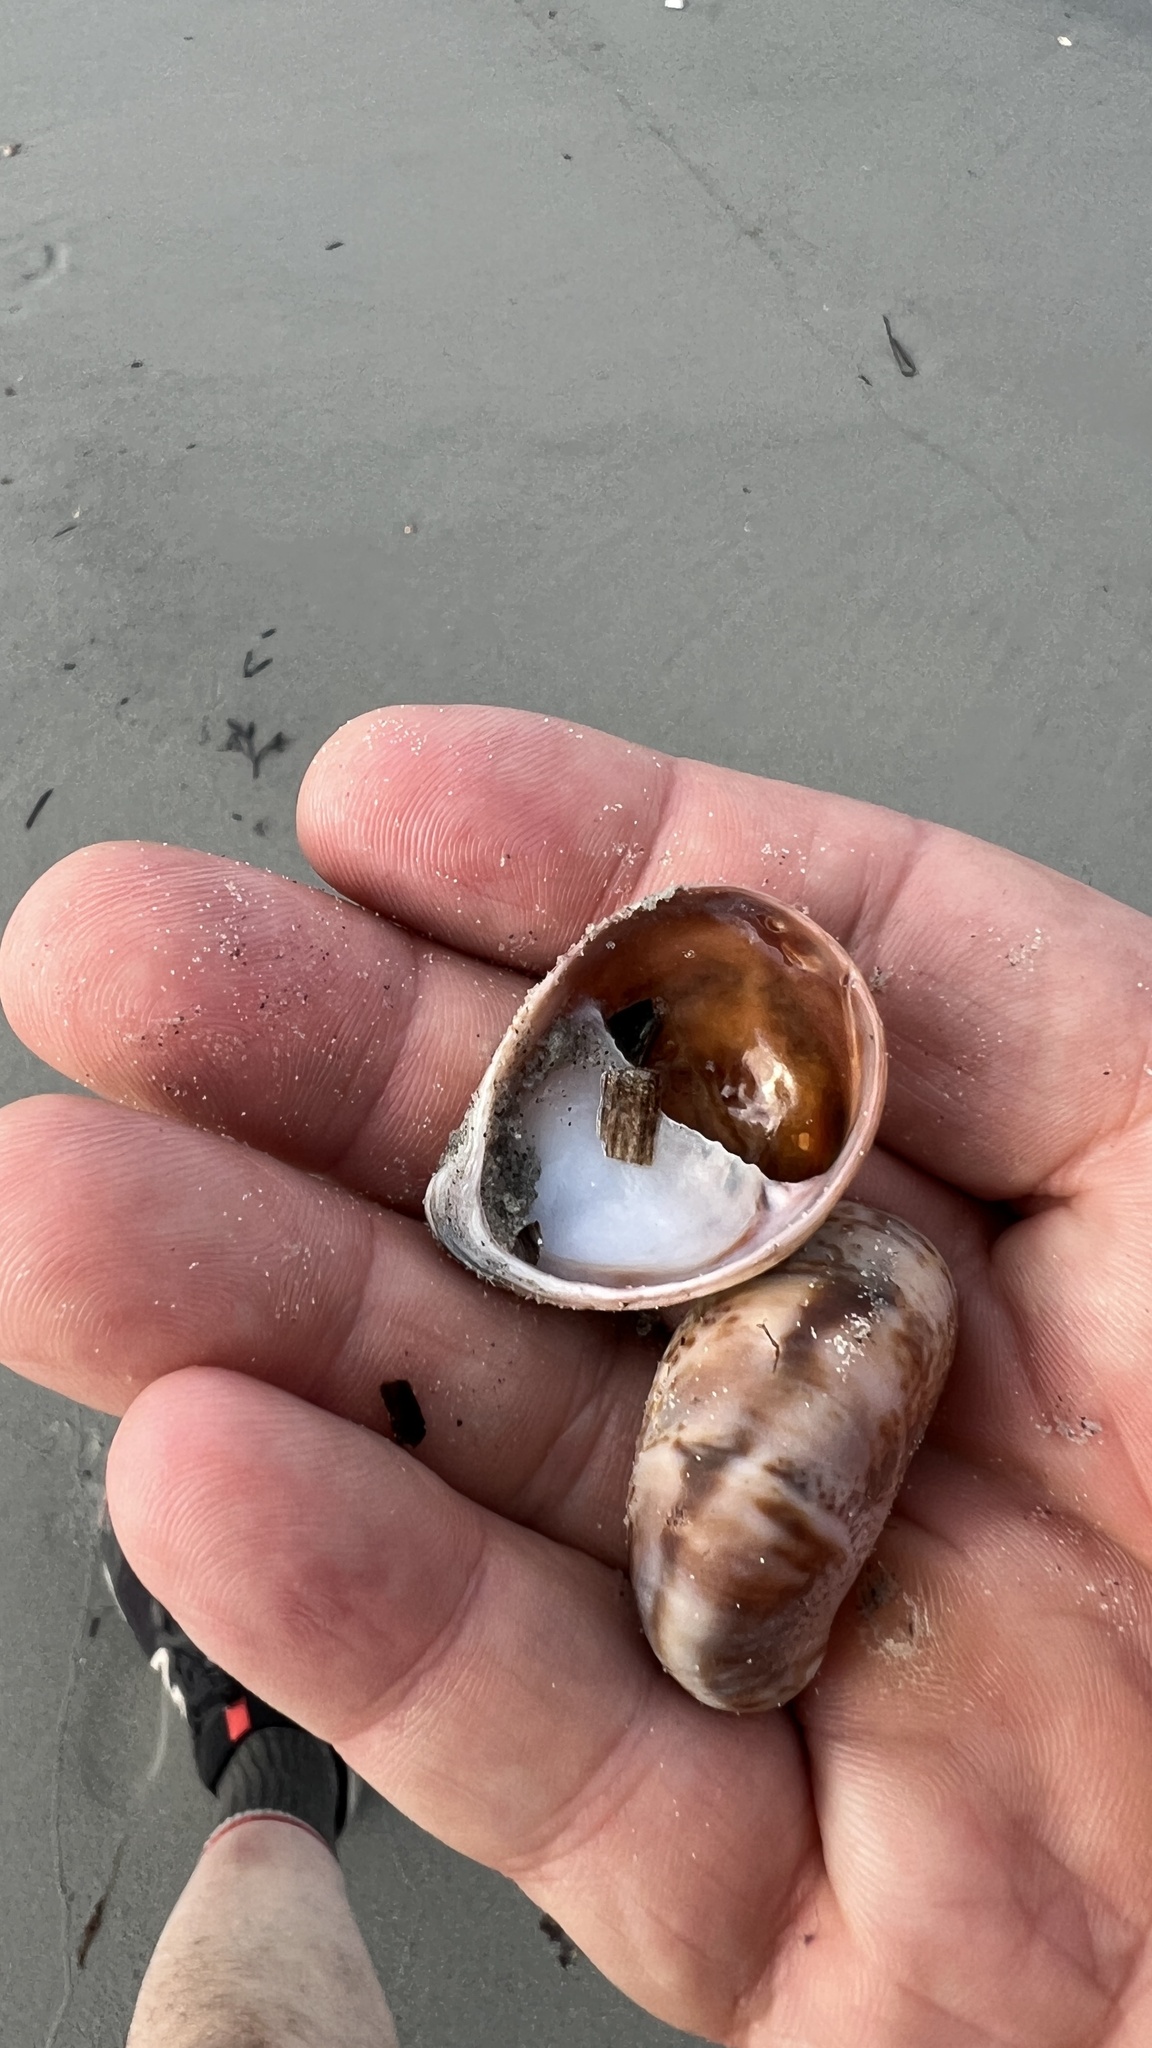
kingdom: Animalia
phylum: Mollusca
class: Gastropoda
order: Littorinimorpha
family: Calyptraeidae
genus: Crepidula
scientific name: Crepidula fornicata
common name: Slipper limpet
